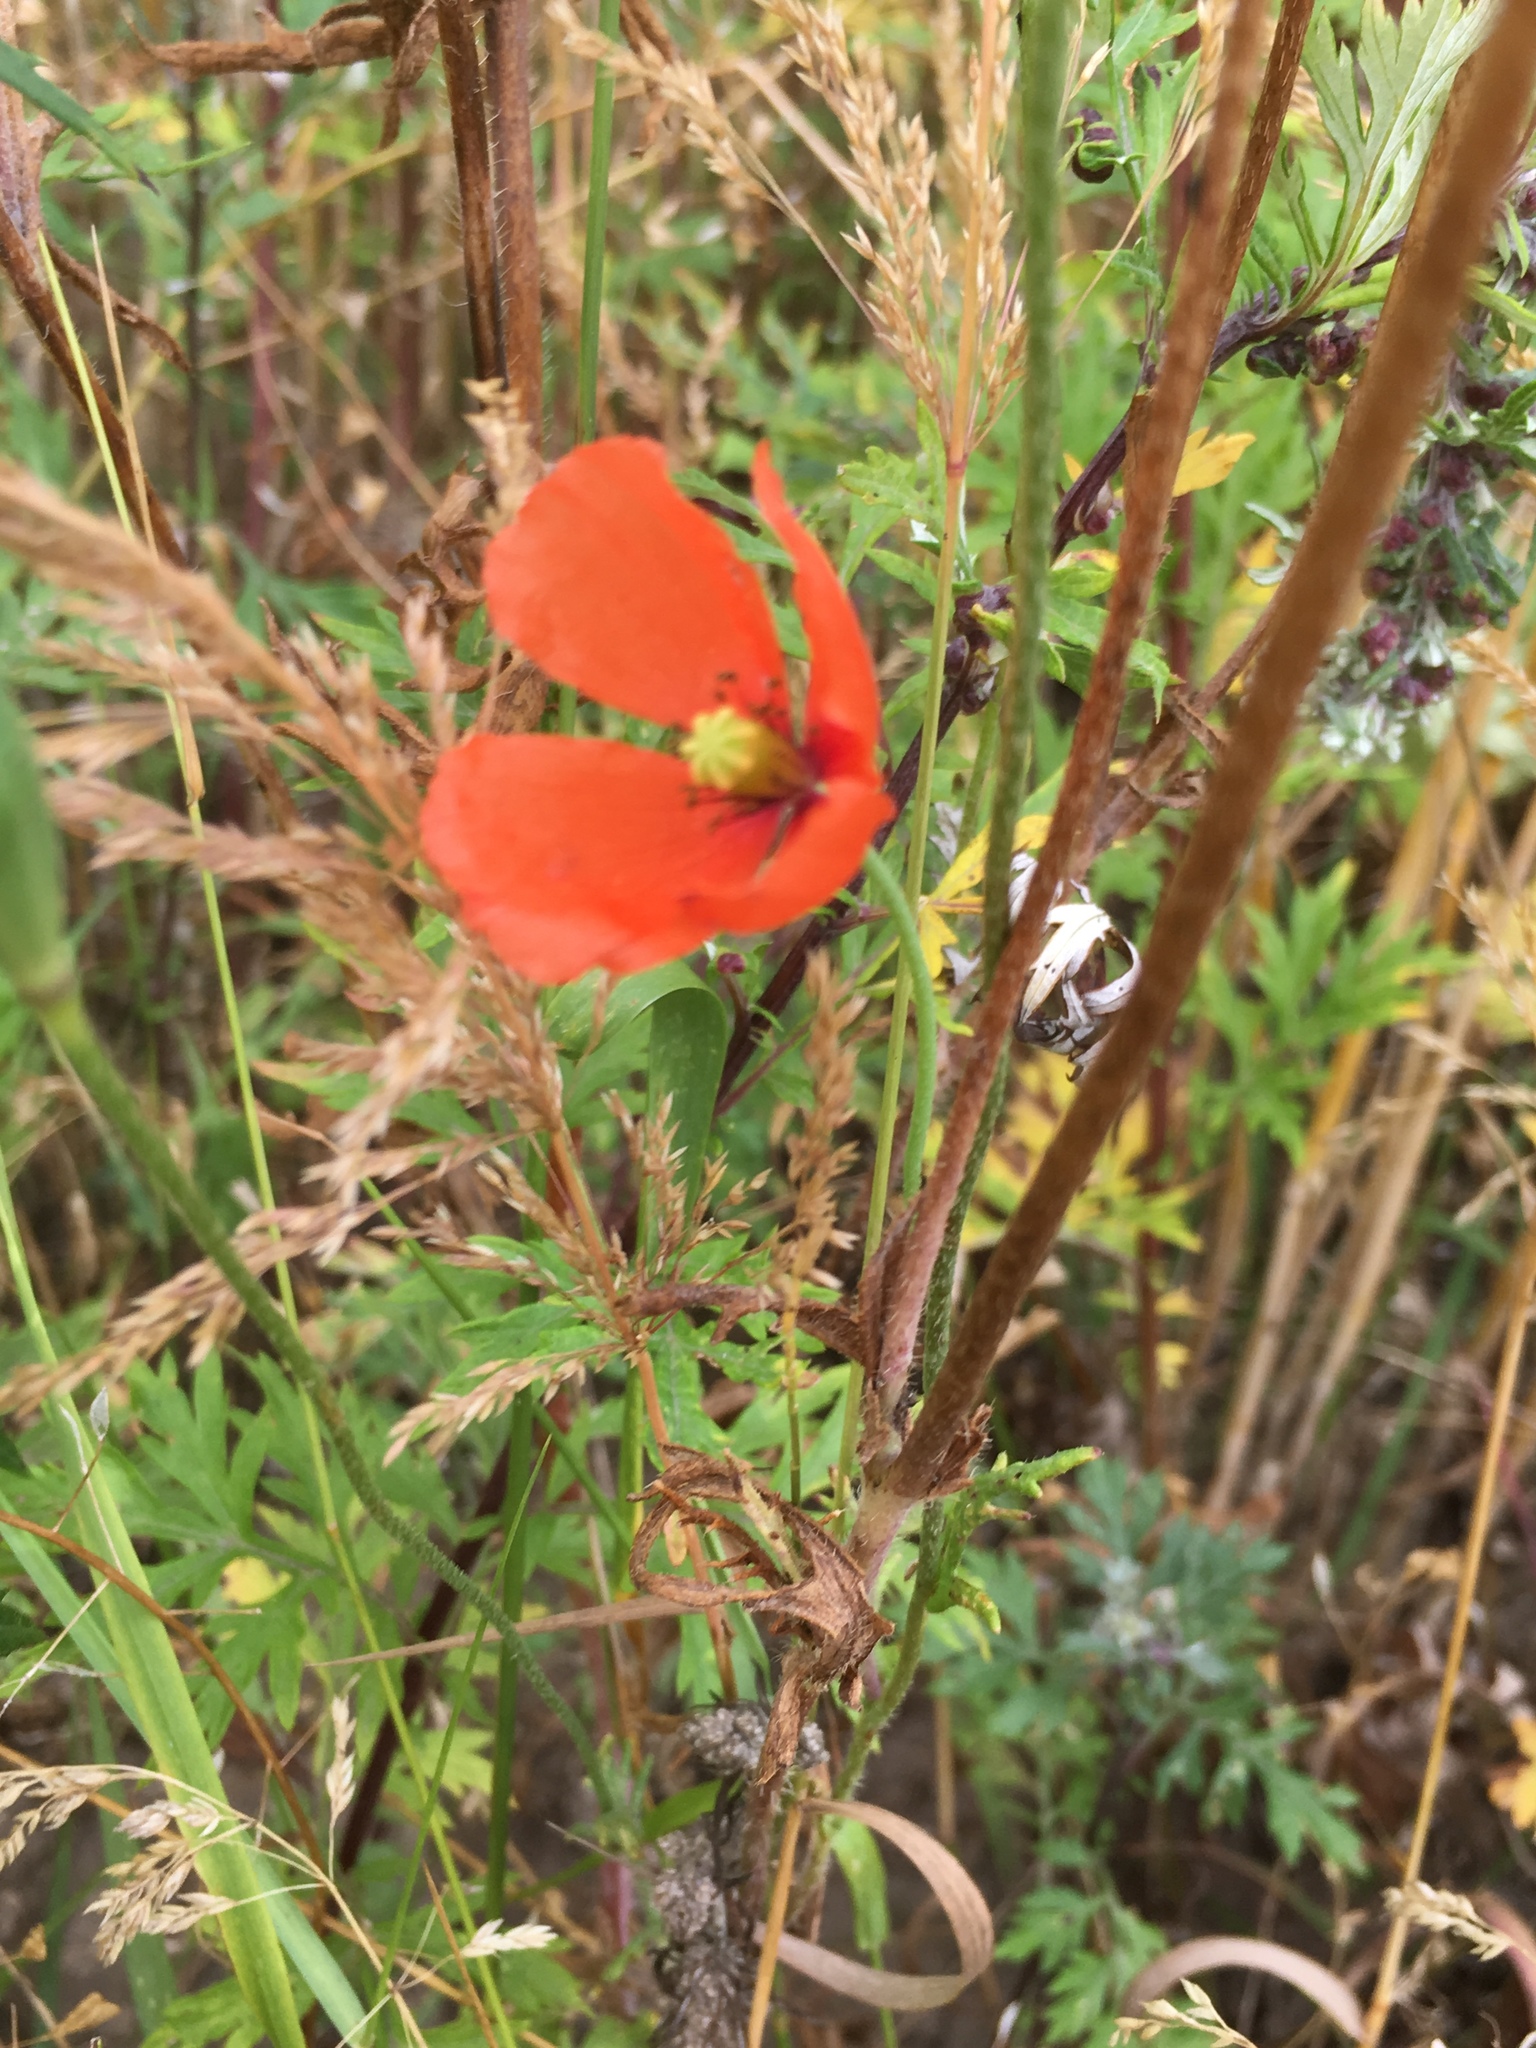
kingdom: Plantae
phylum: Tracheophyta
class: Magnoliopsida
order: Ranunculales
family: Papaveraceae
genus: Papaver
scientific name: Papaver rhoeas
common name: Corn poppy
